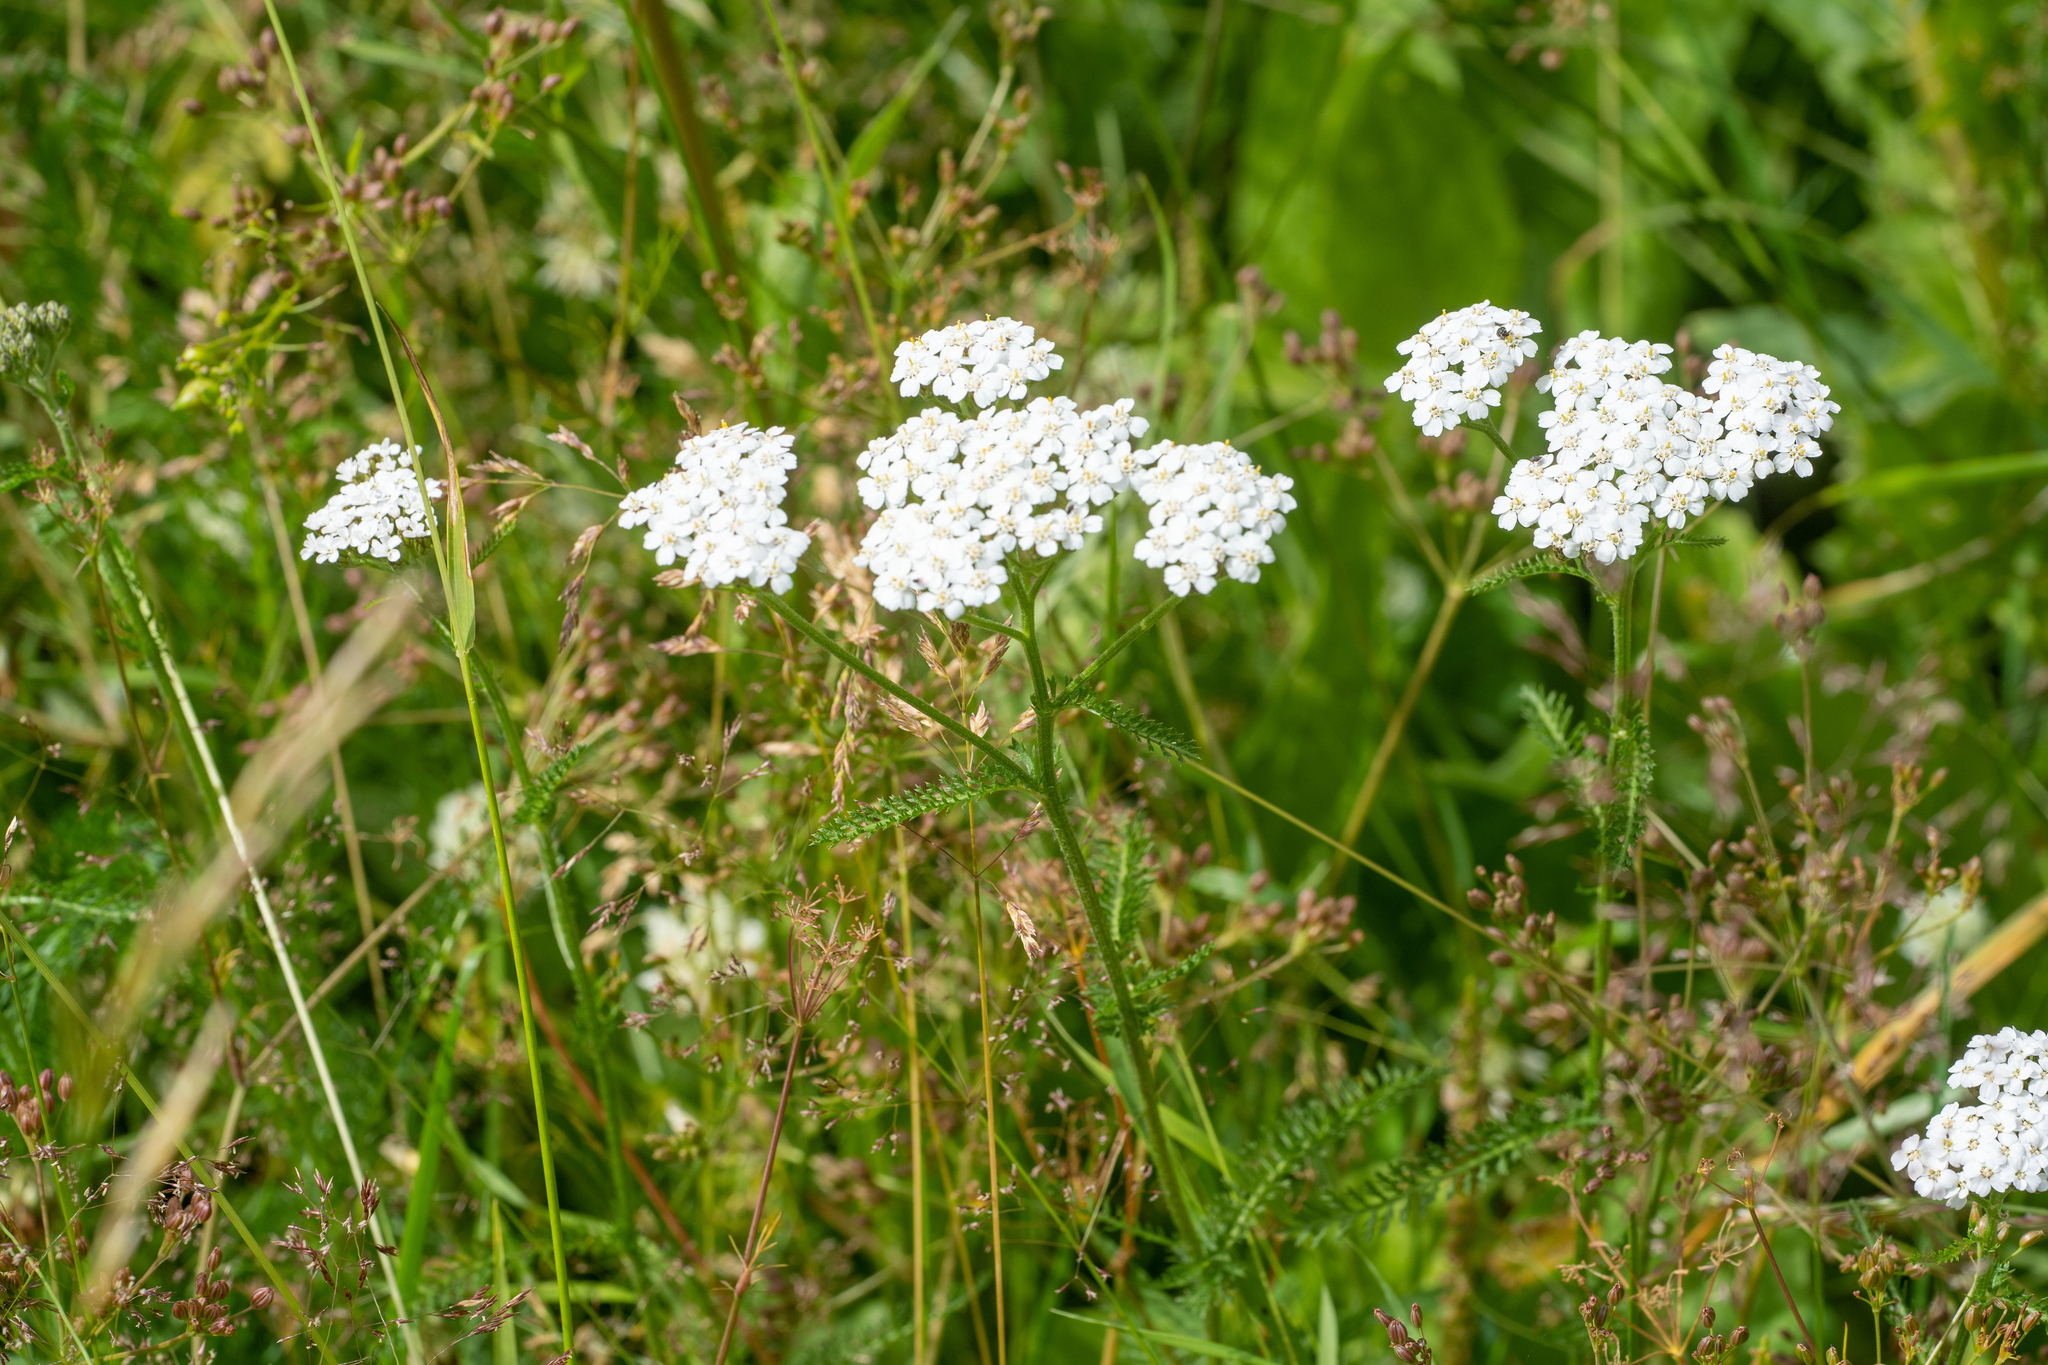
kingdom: Plantae
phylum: Tracheophyta
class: Magnoliopsida
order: Asterales
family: Asteraceae
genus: Achillea
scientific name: Achillea millefolium
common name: Yarrow
